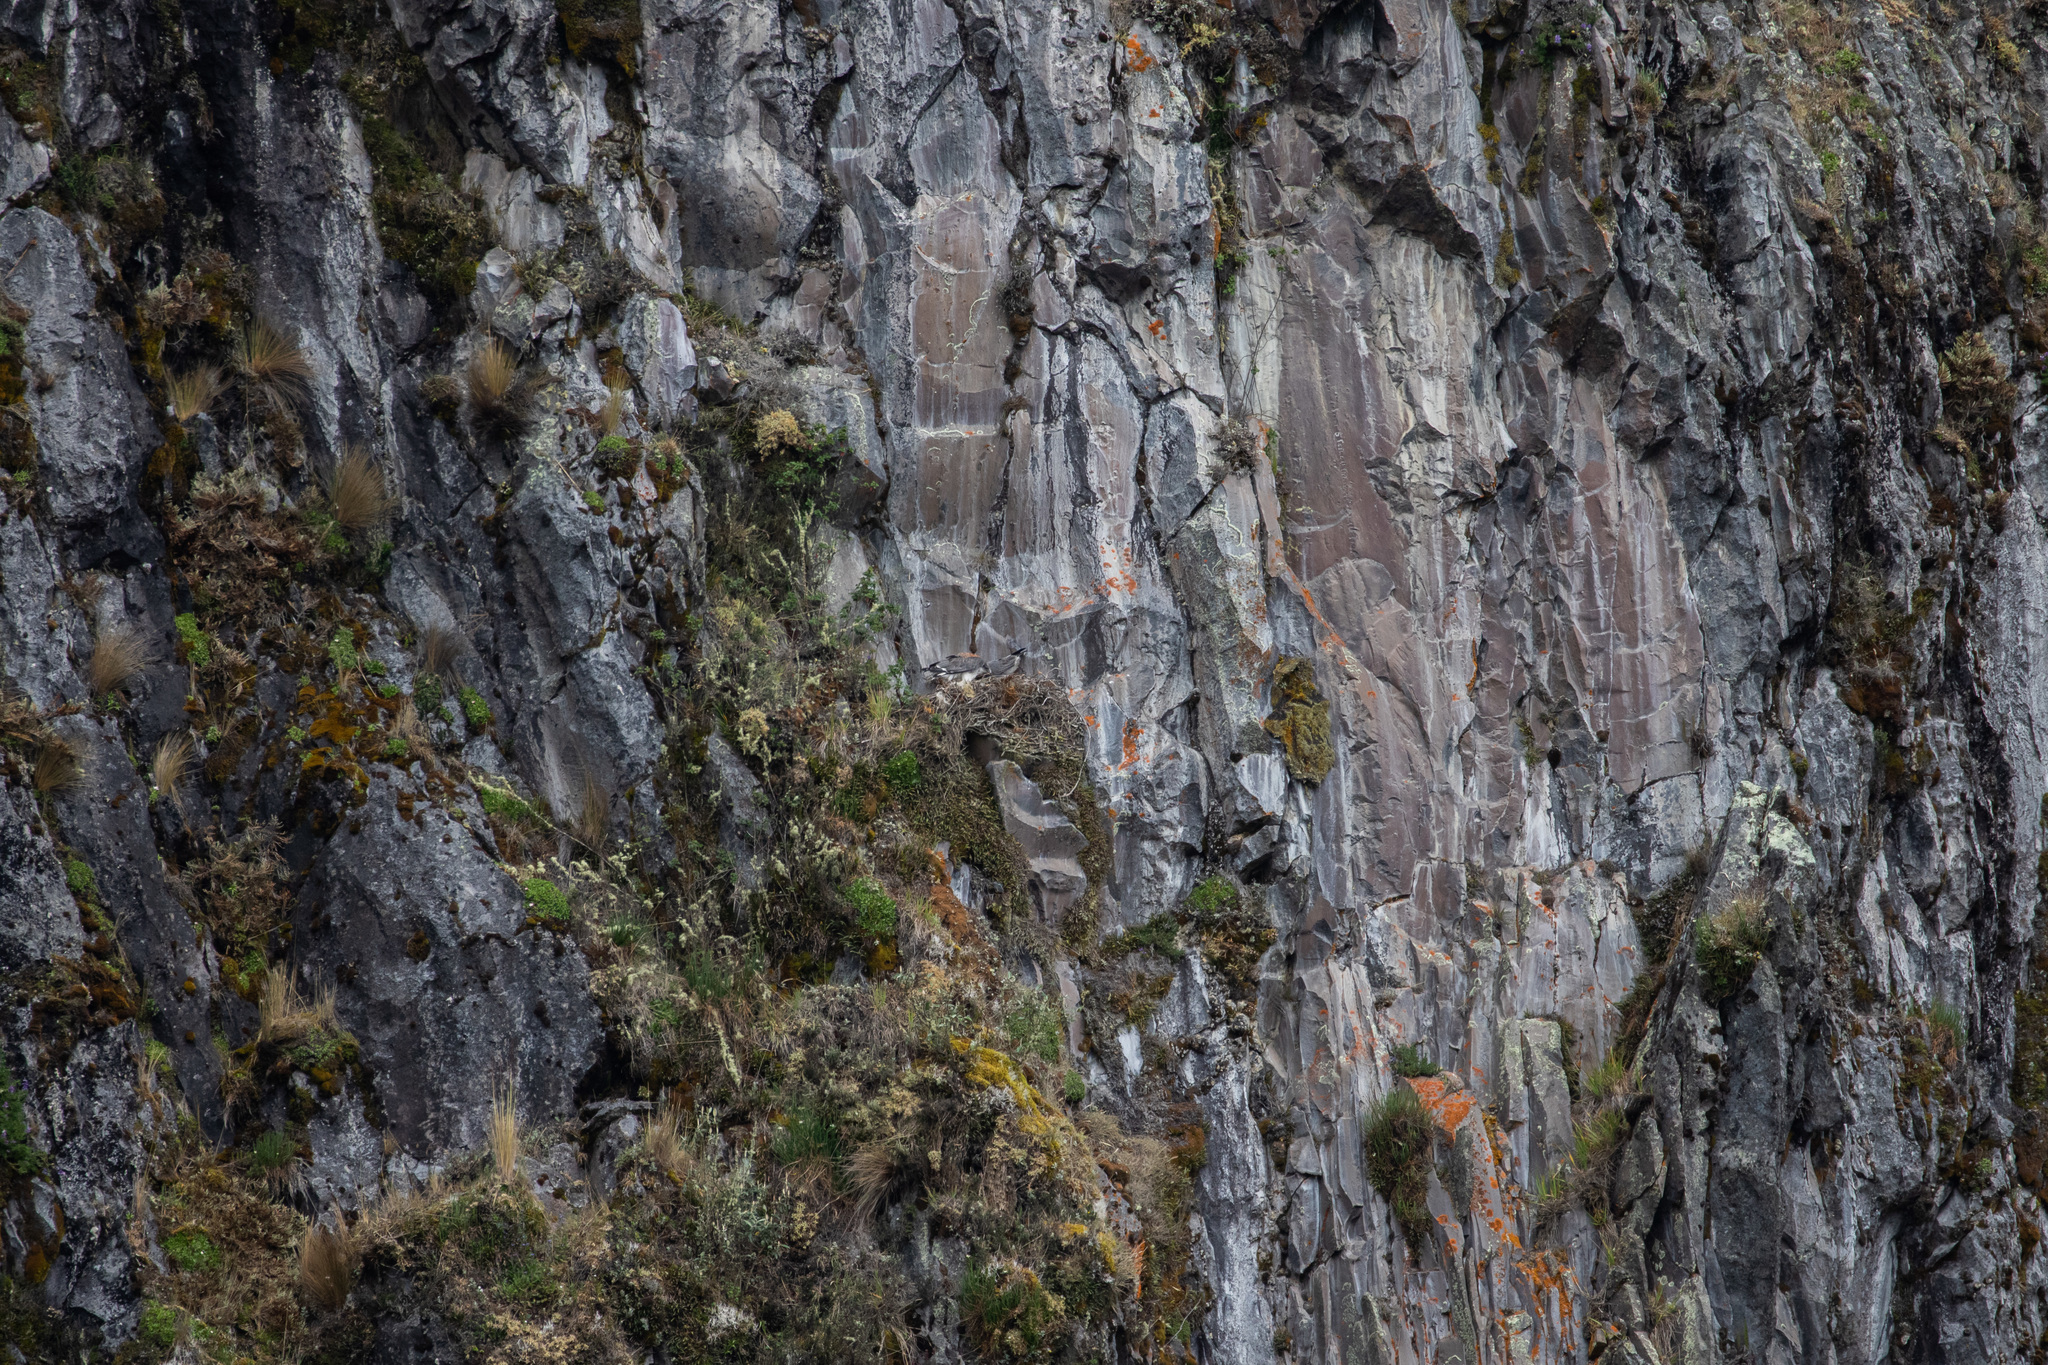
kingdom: Animalia
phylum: Chordata
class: Aves
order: Accipitriformes
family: Accipitridae
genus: Buteo
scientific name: Buteo polyosoma
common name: Variable hawk
